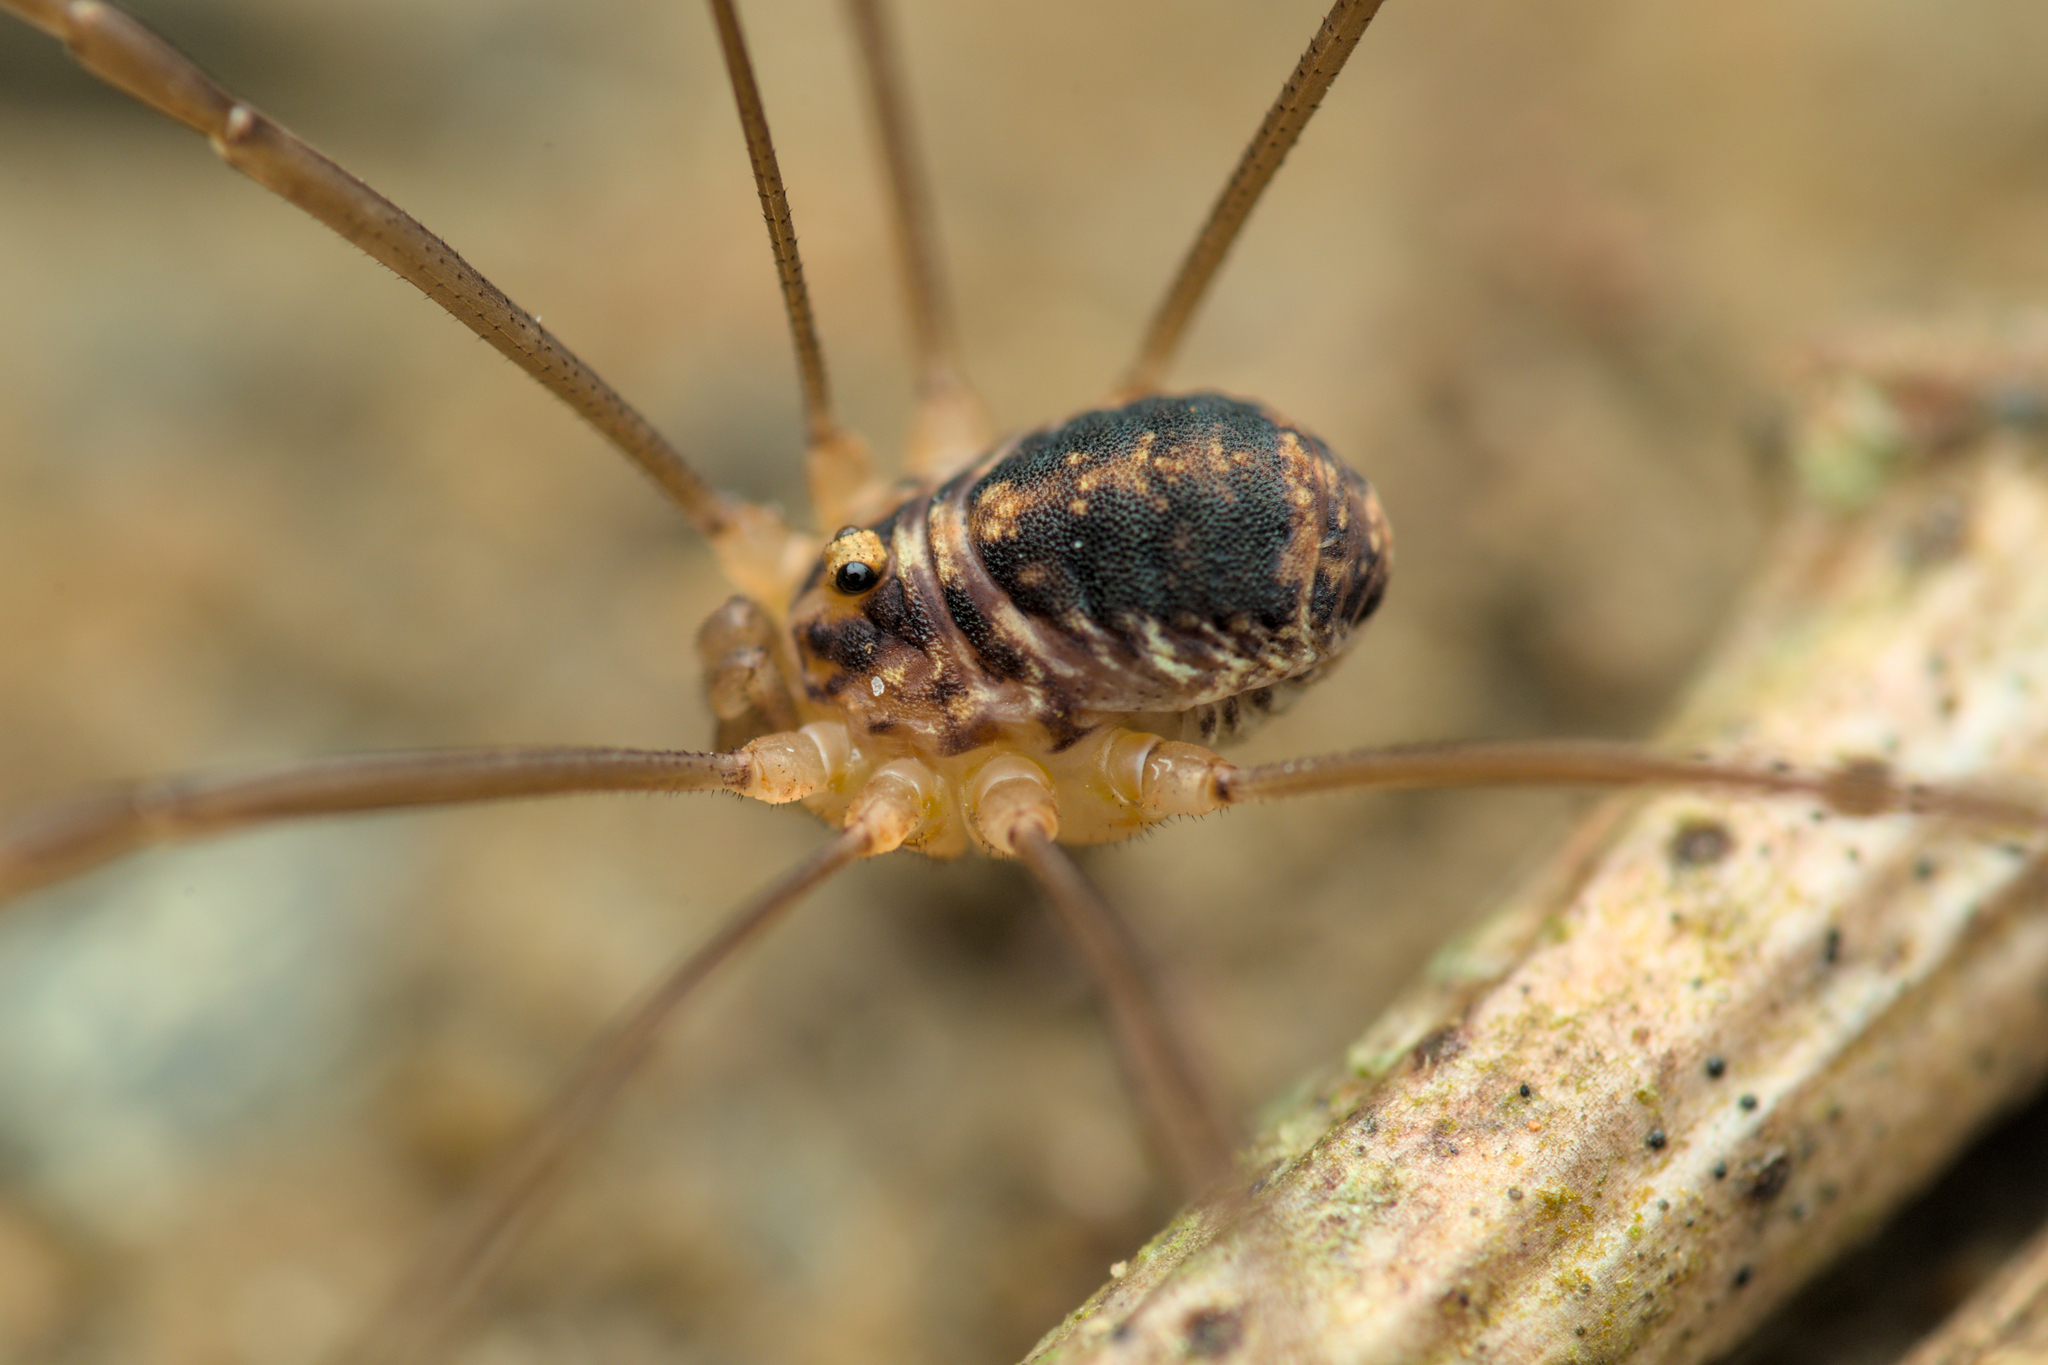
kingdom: Animalia
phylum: Arthropoda
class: Arachnida
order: Opiliones
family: Sclerosomatidae
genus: Nelima
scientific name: Nelima silvatica
